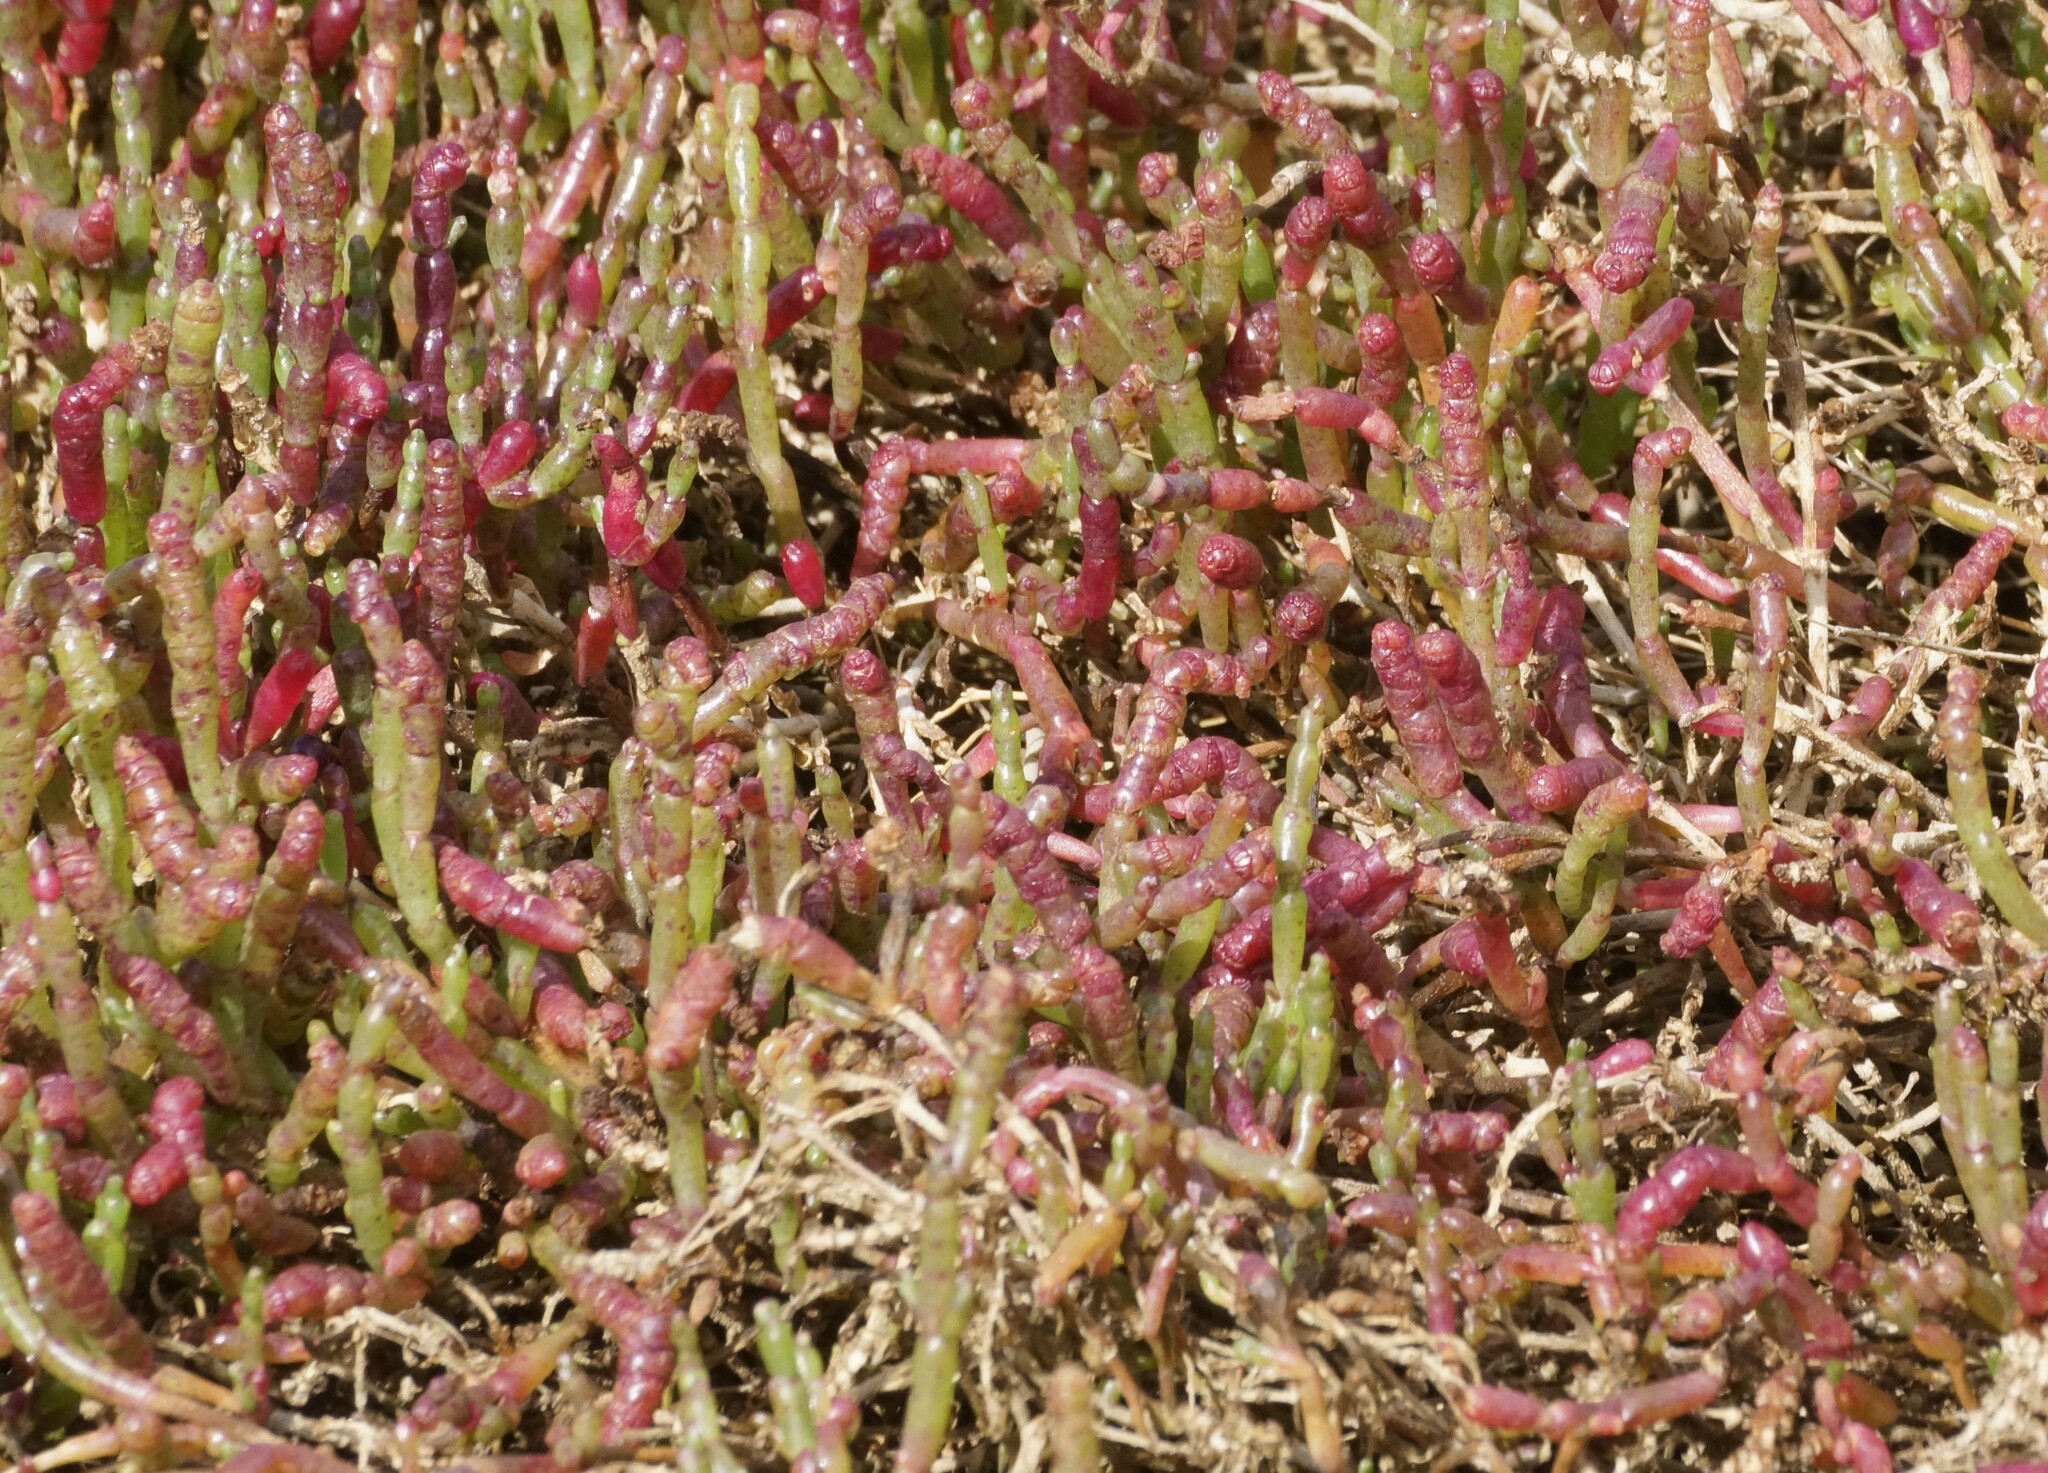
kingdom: Plantae
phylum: Tracheophyta
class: Magnoliopsida
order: Caryophyllales
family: Amaranthaceae
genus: Salicornia
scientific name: Salicornia quinqueflora
